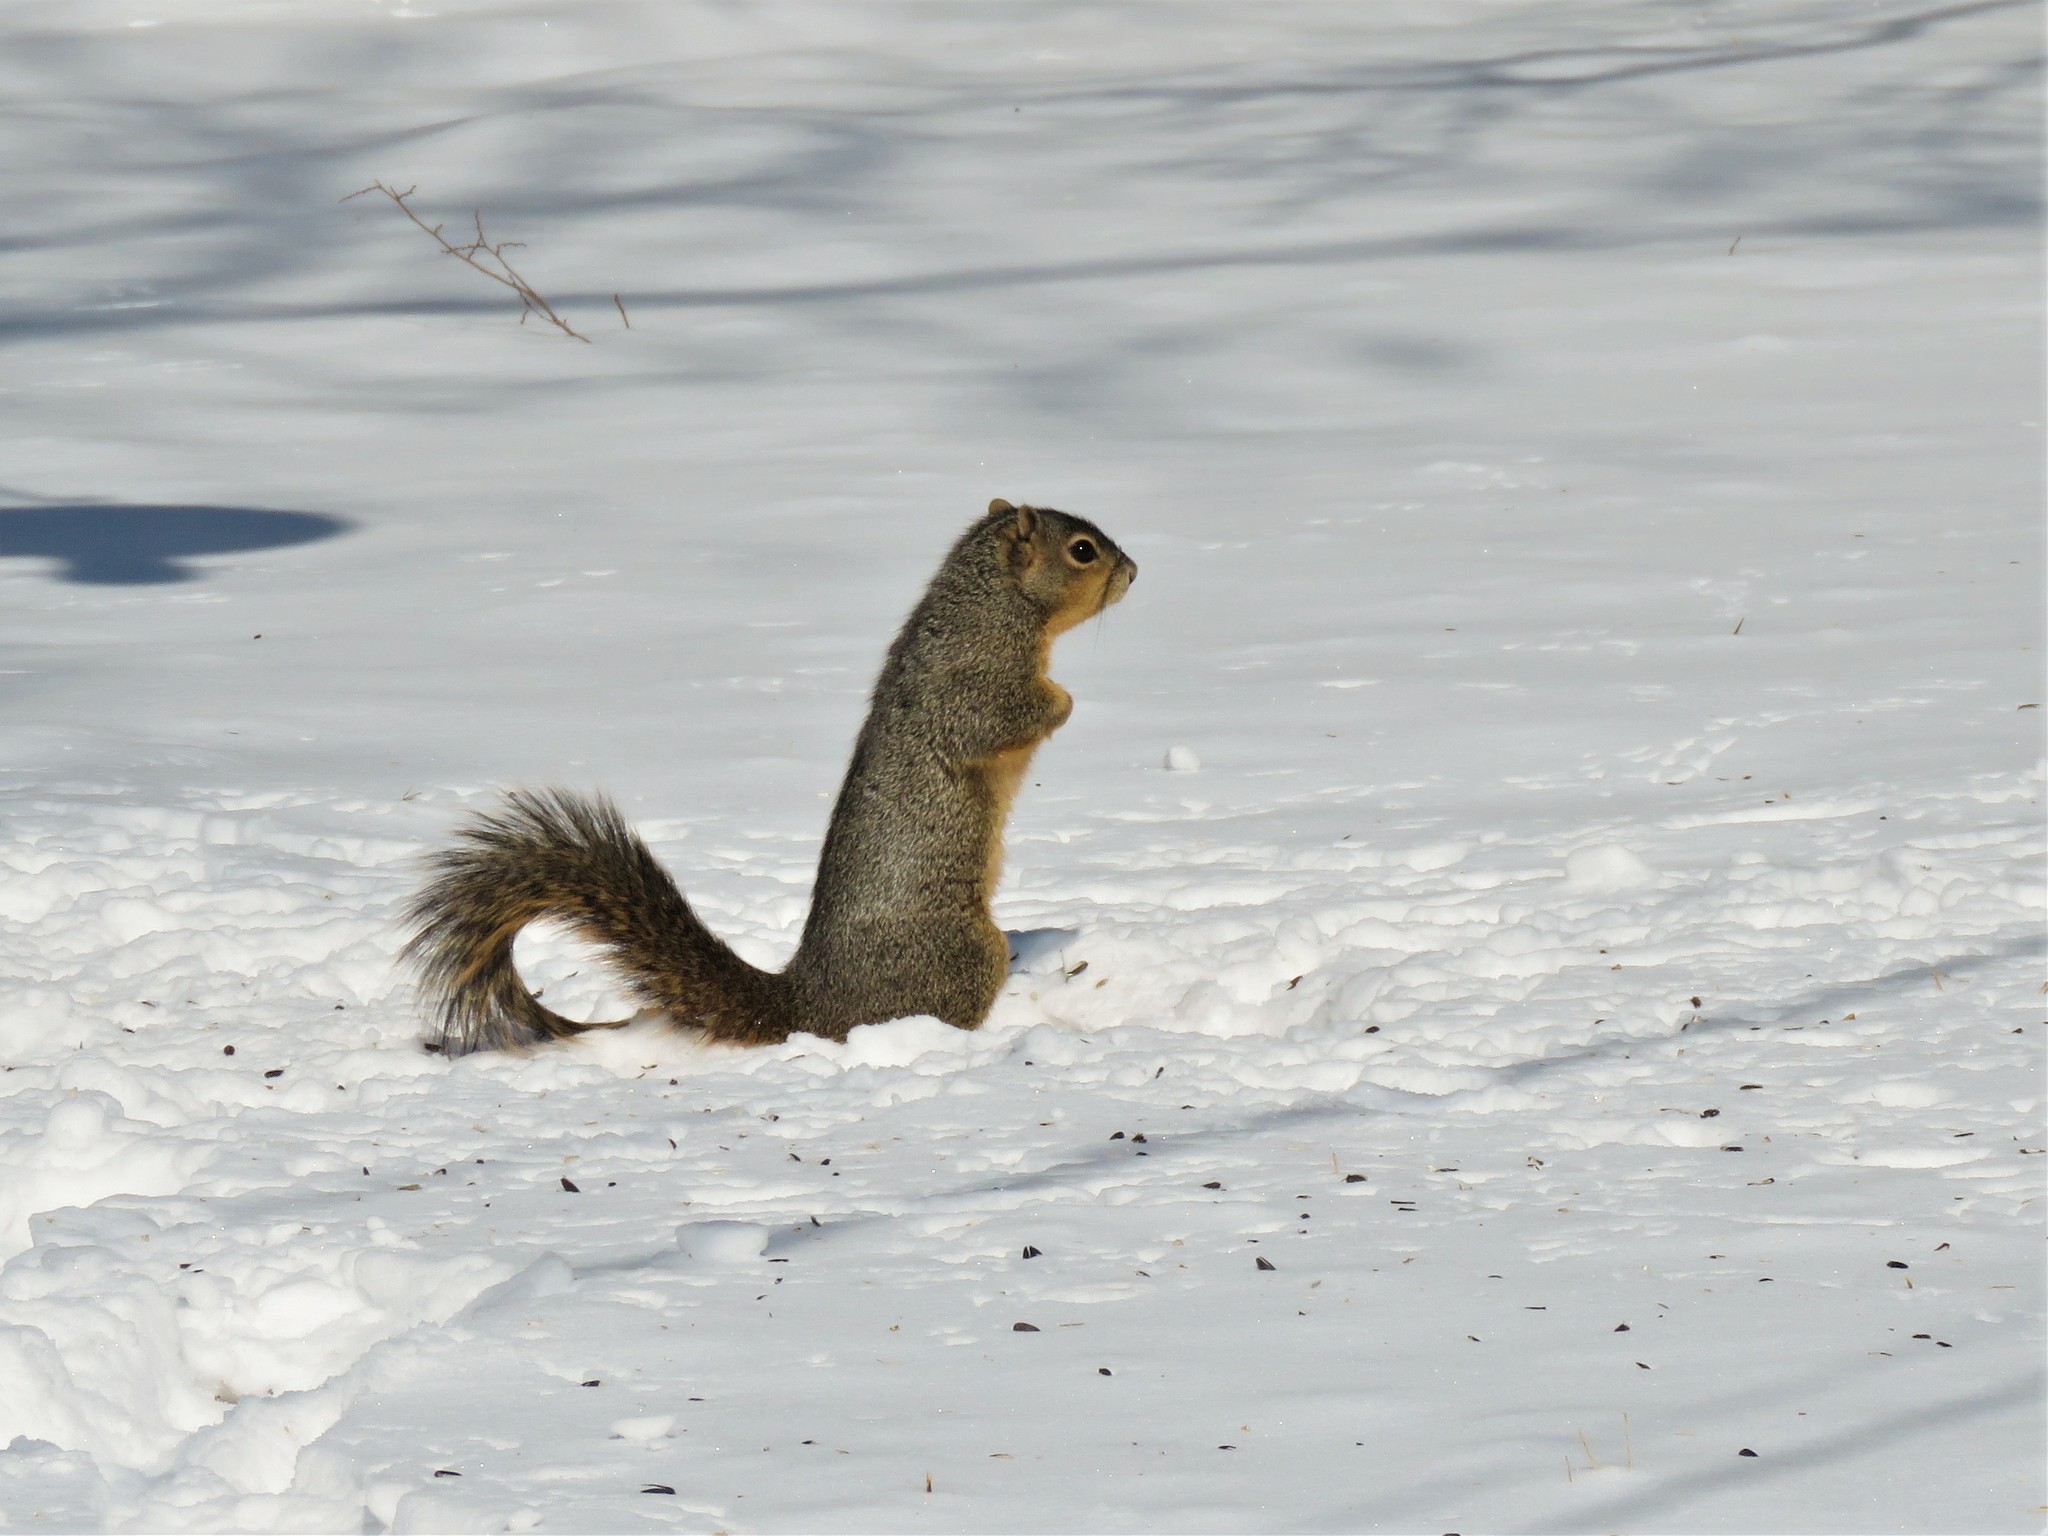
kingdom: Animalia
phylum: Chordata
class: Mammalia
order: Rodentia
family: Sciuridae
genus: Sciurus
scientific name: Sciurus niger
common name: Fox squirrel
